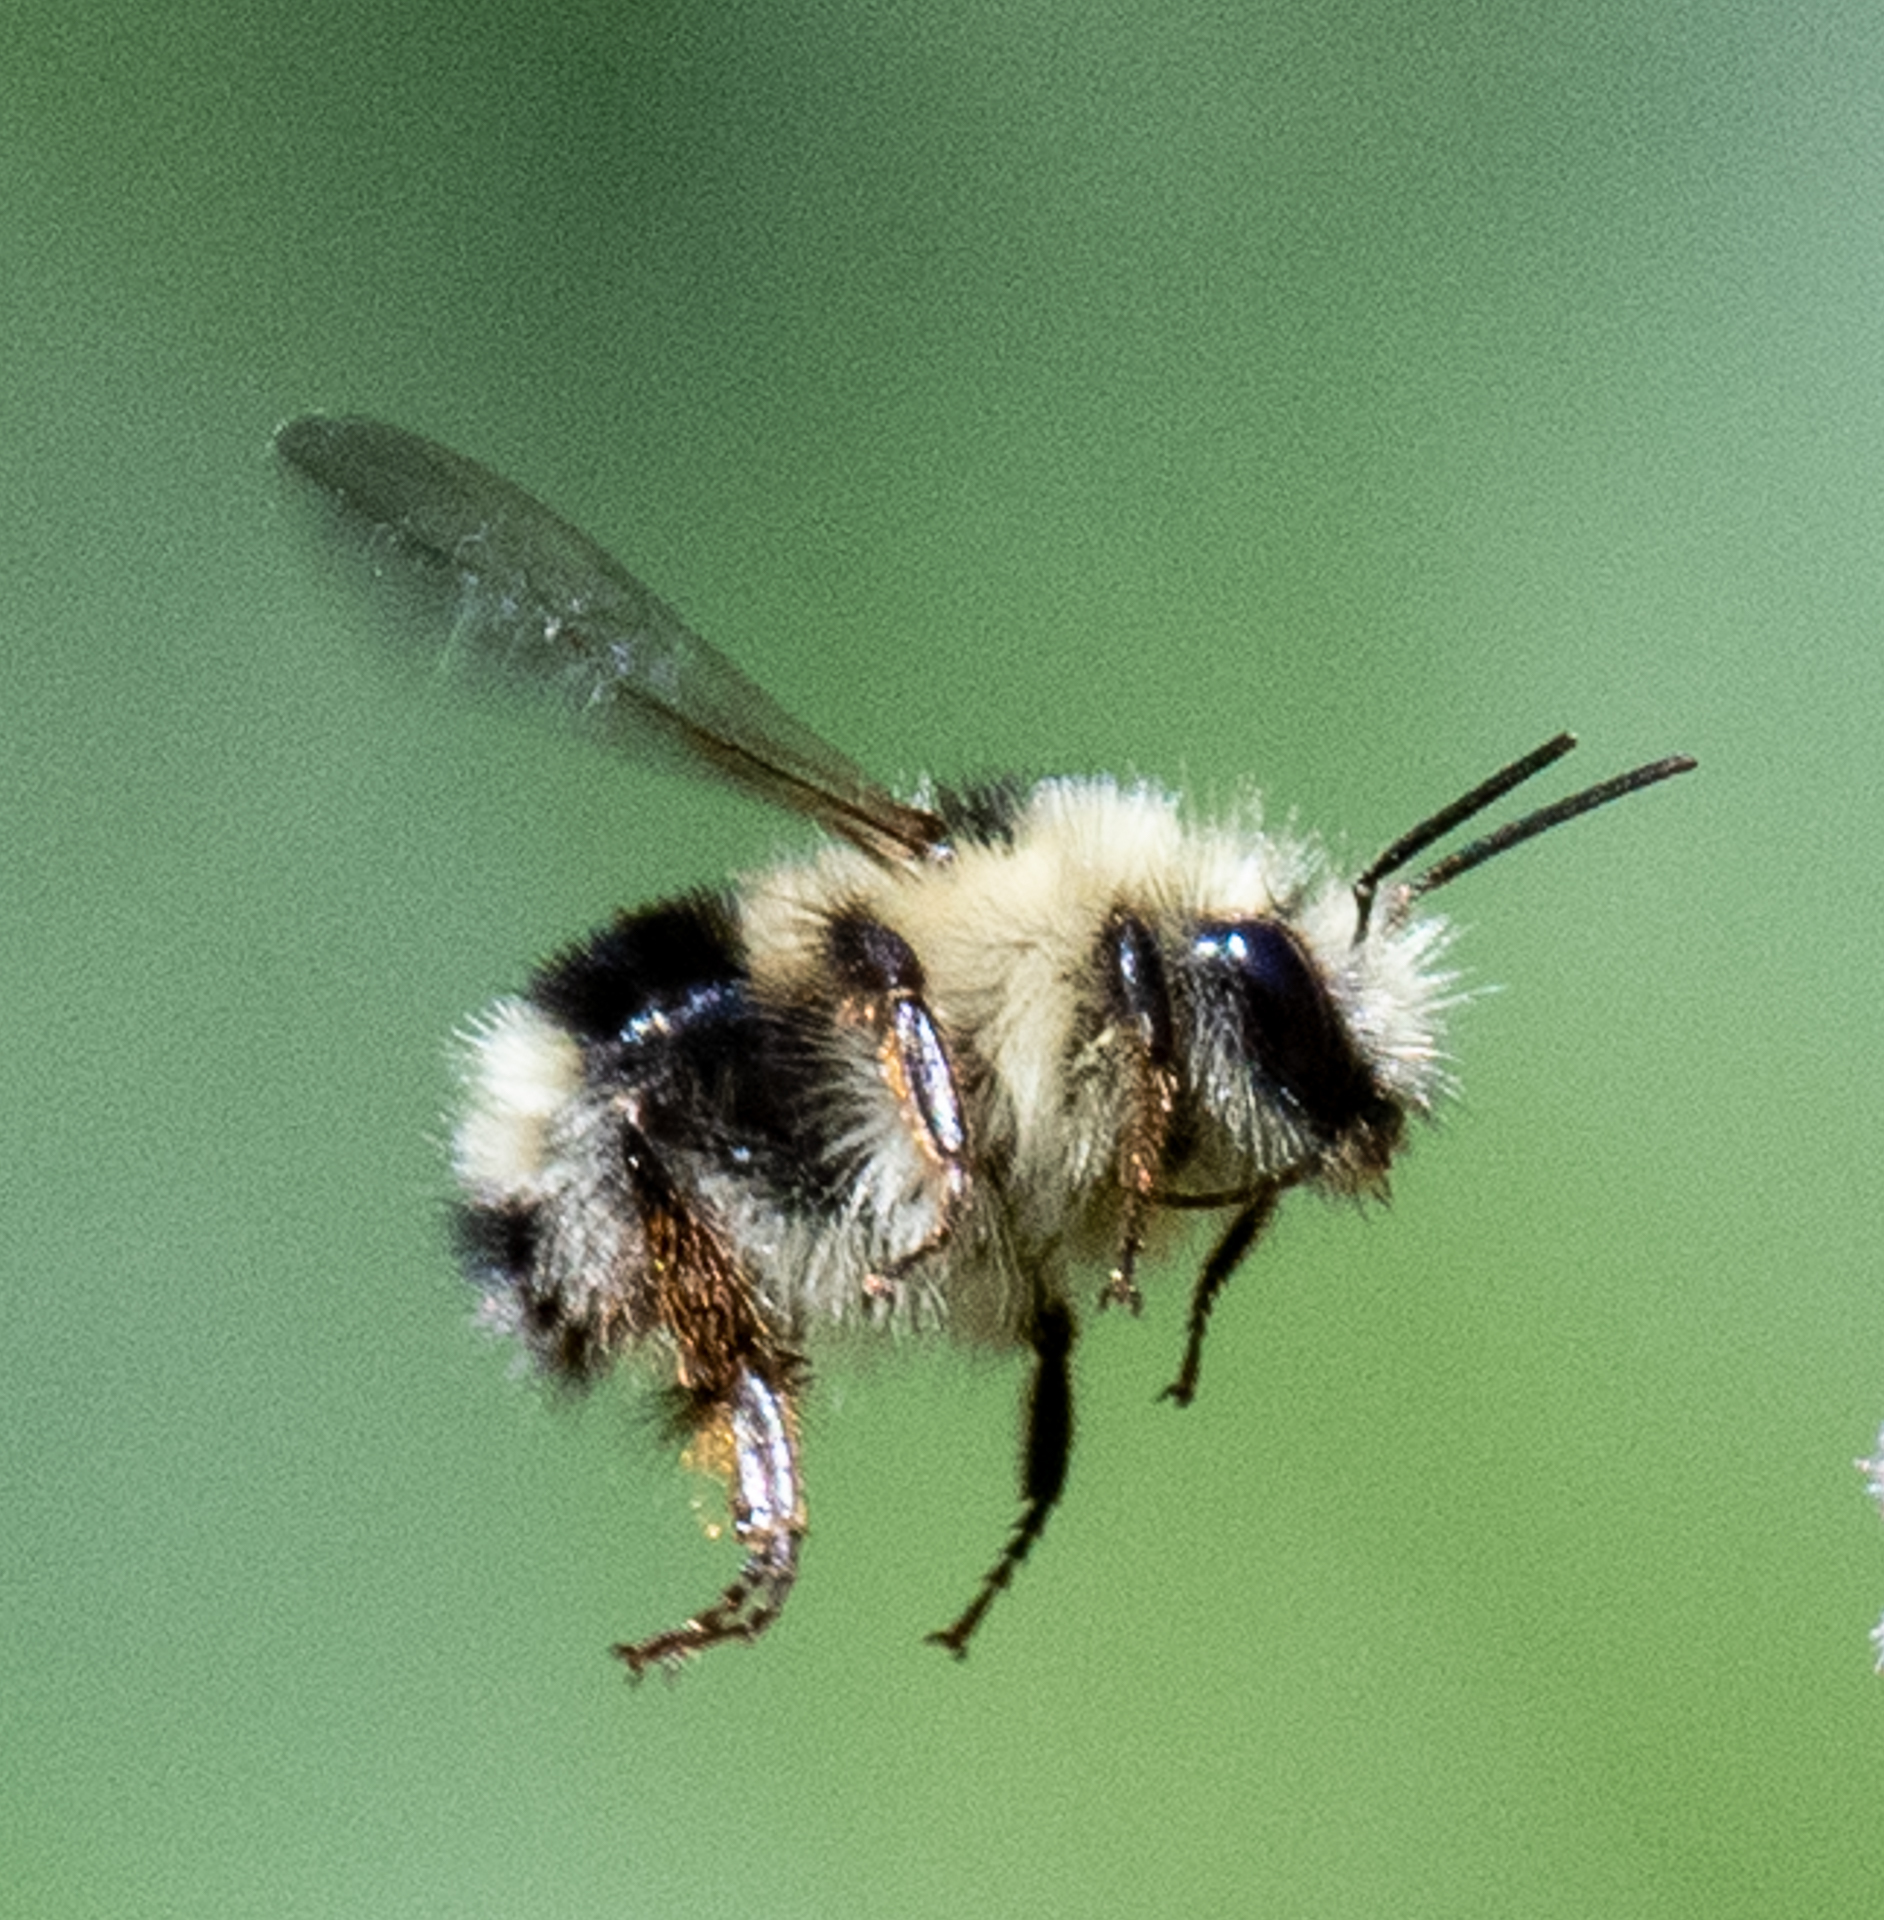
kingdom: Animalia
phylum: Arthropoda
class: Insecta
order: Hymenoptera
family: Apidae
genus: Bombus
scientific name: Bombus melanopygus
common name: Black tail bumble bee
